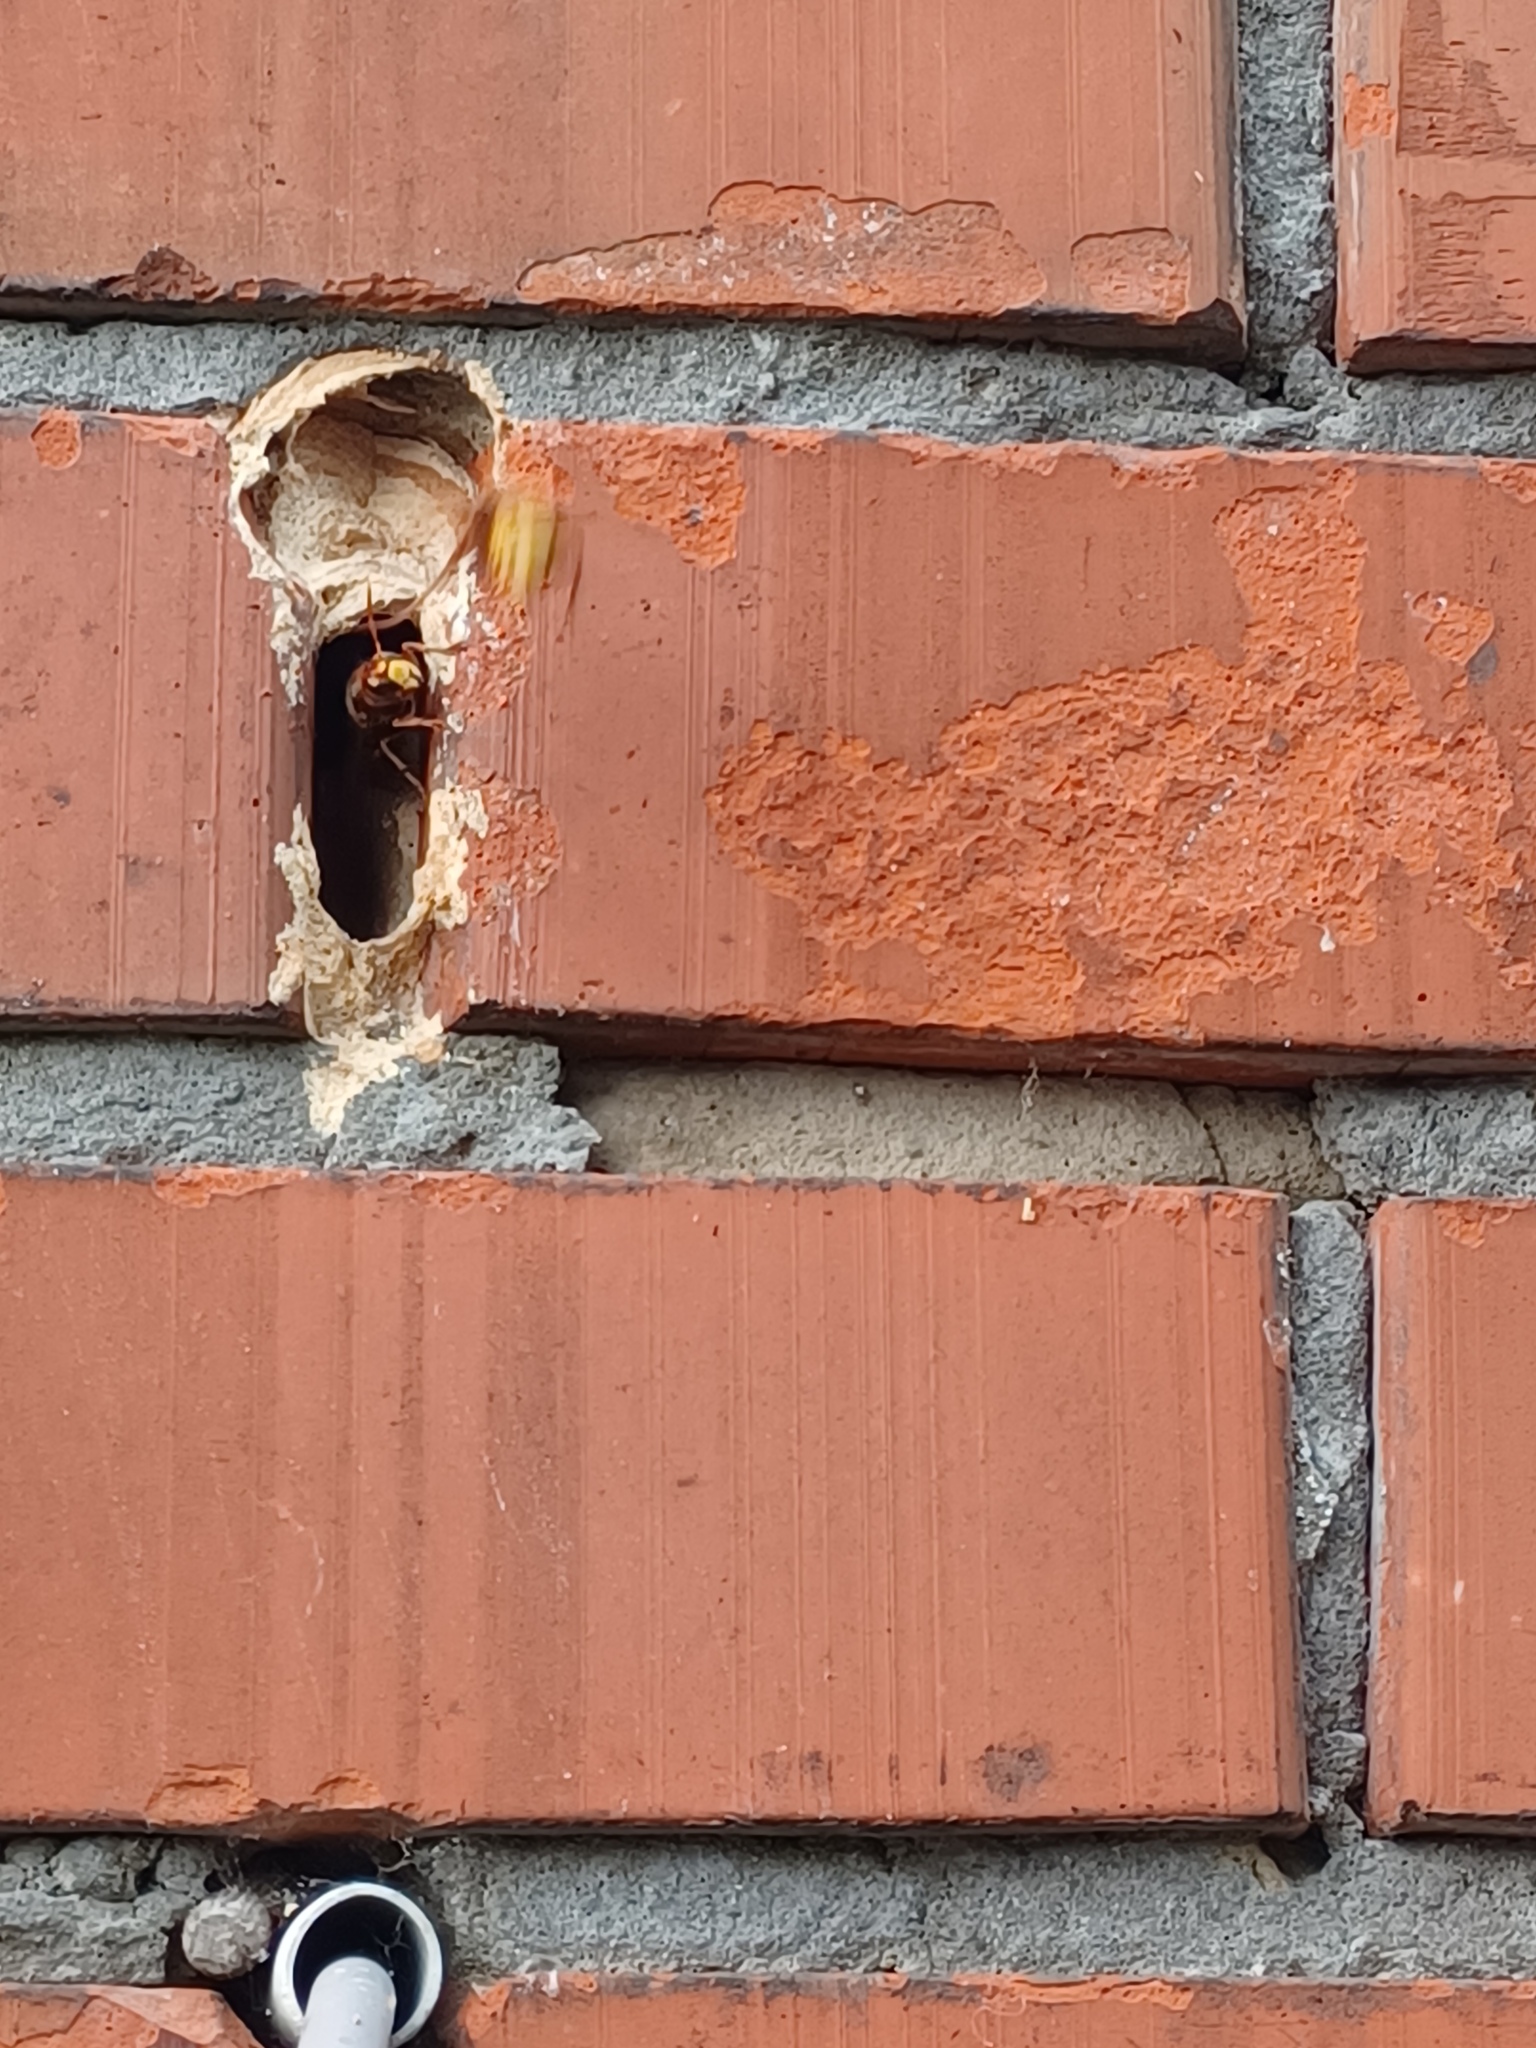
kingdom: Animalia
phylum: Arthropoda
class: Insecta
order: Hymenoptera
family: Vespidae
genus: Vespa
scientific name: Vespa crabro
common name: Hornet
